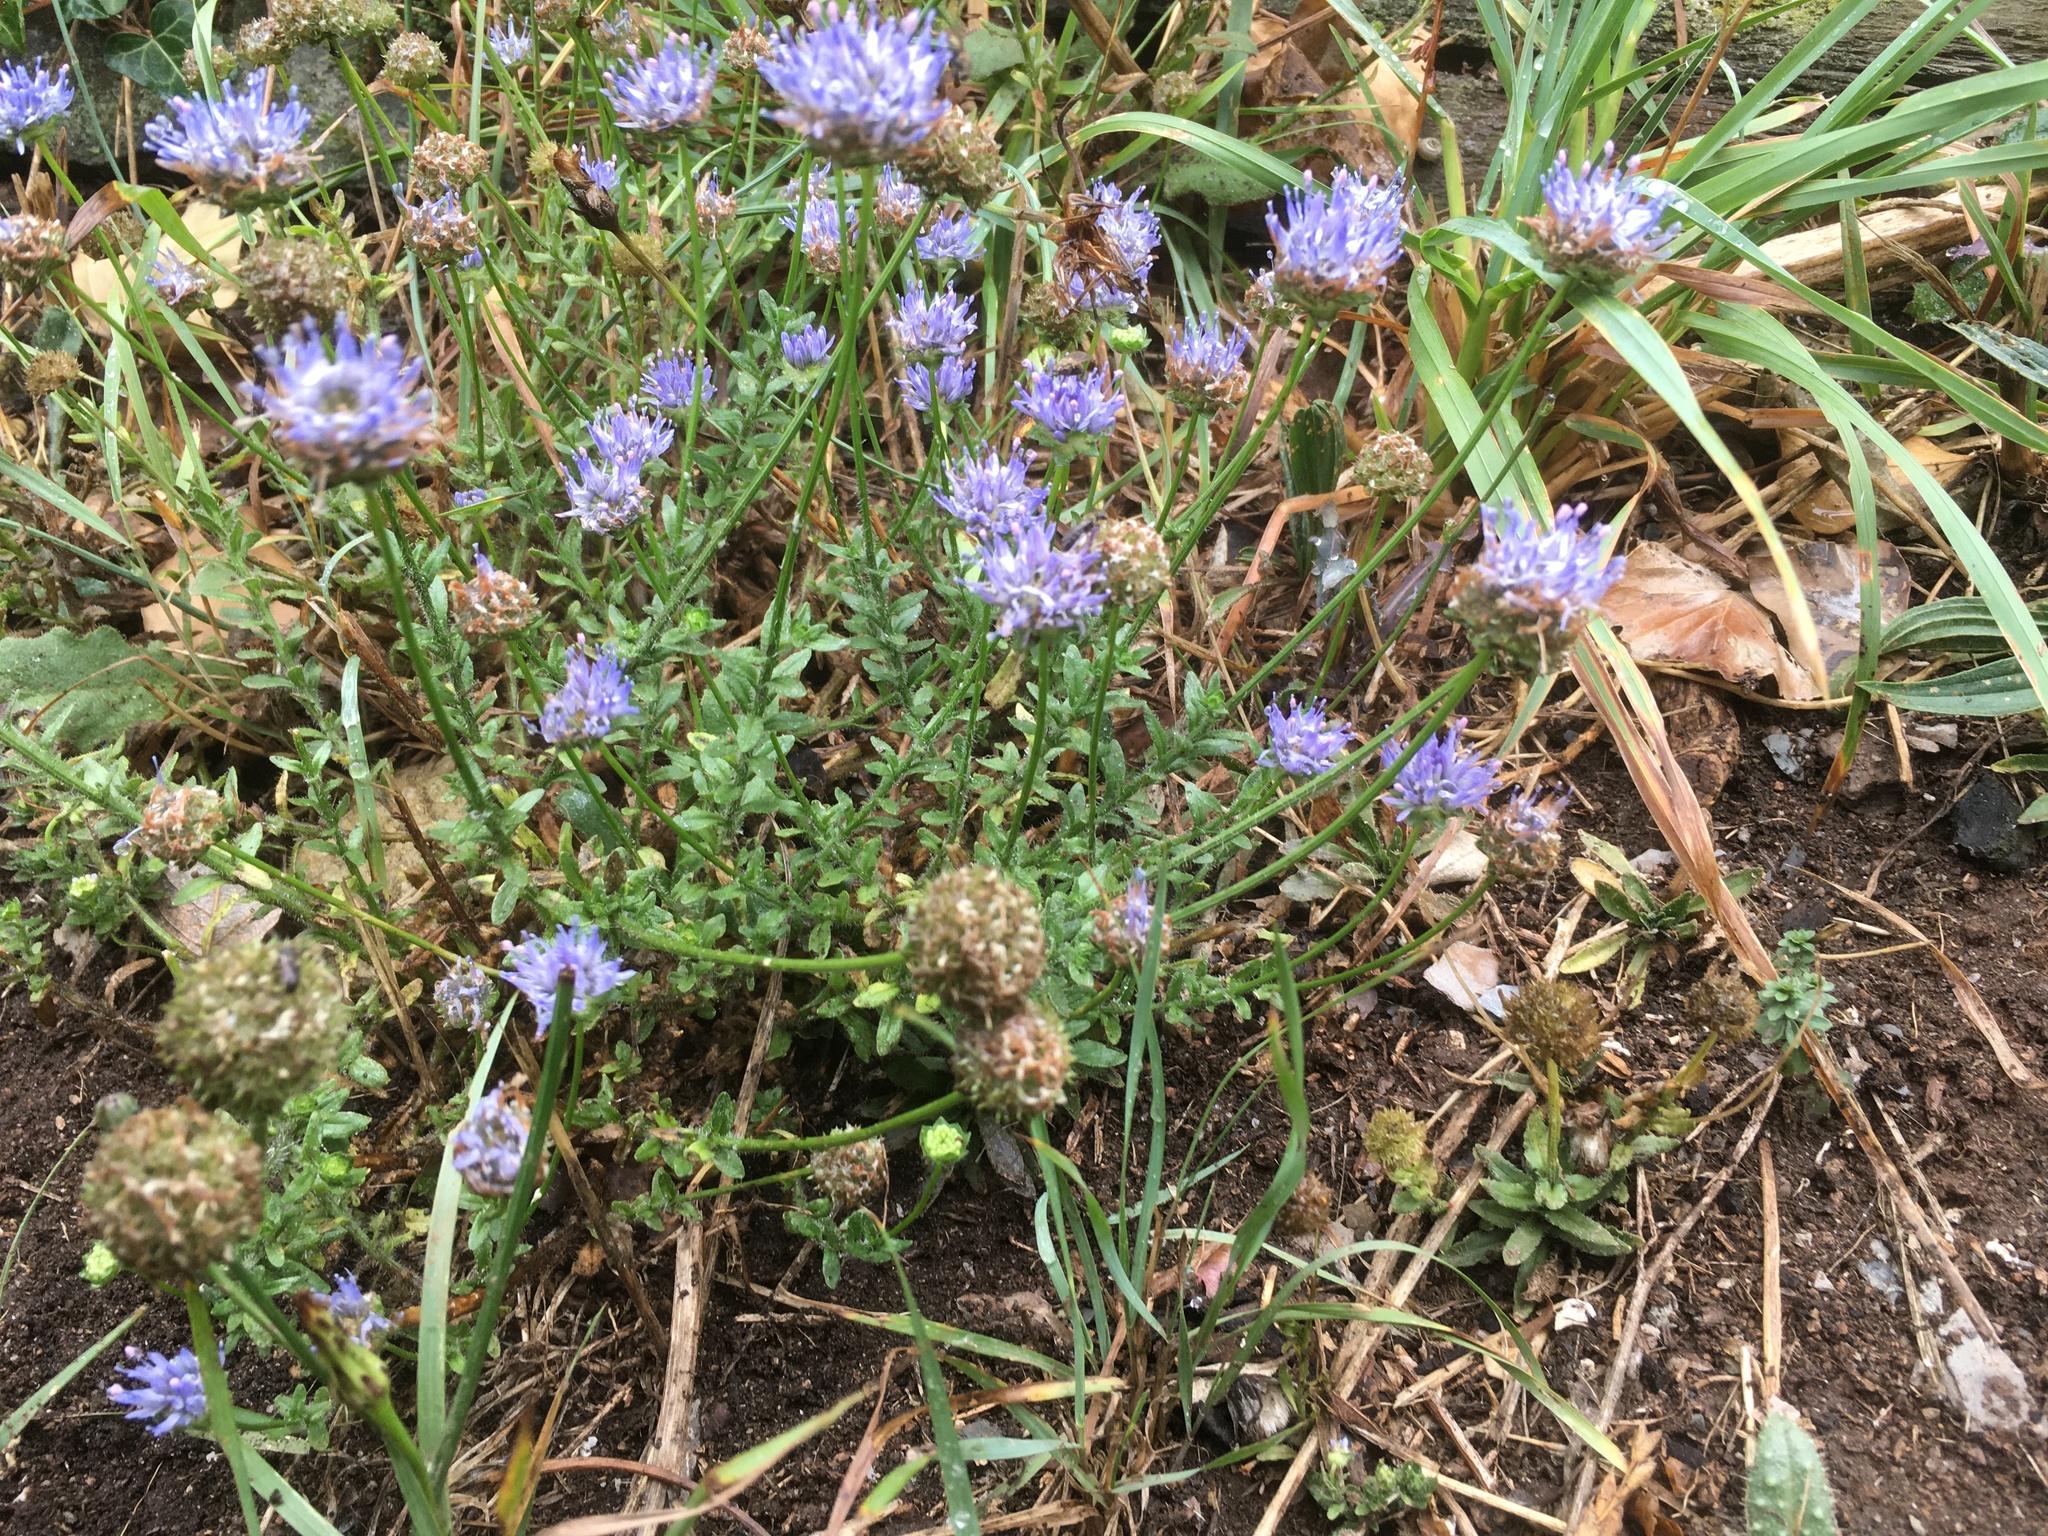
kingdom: Plantae
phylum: Tracheophyta
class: Magnoliopsida
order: Asterales
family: Campanulaceae
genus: Jasione
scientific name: Jasione montana
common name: Sheep's-bit
